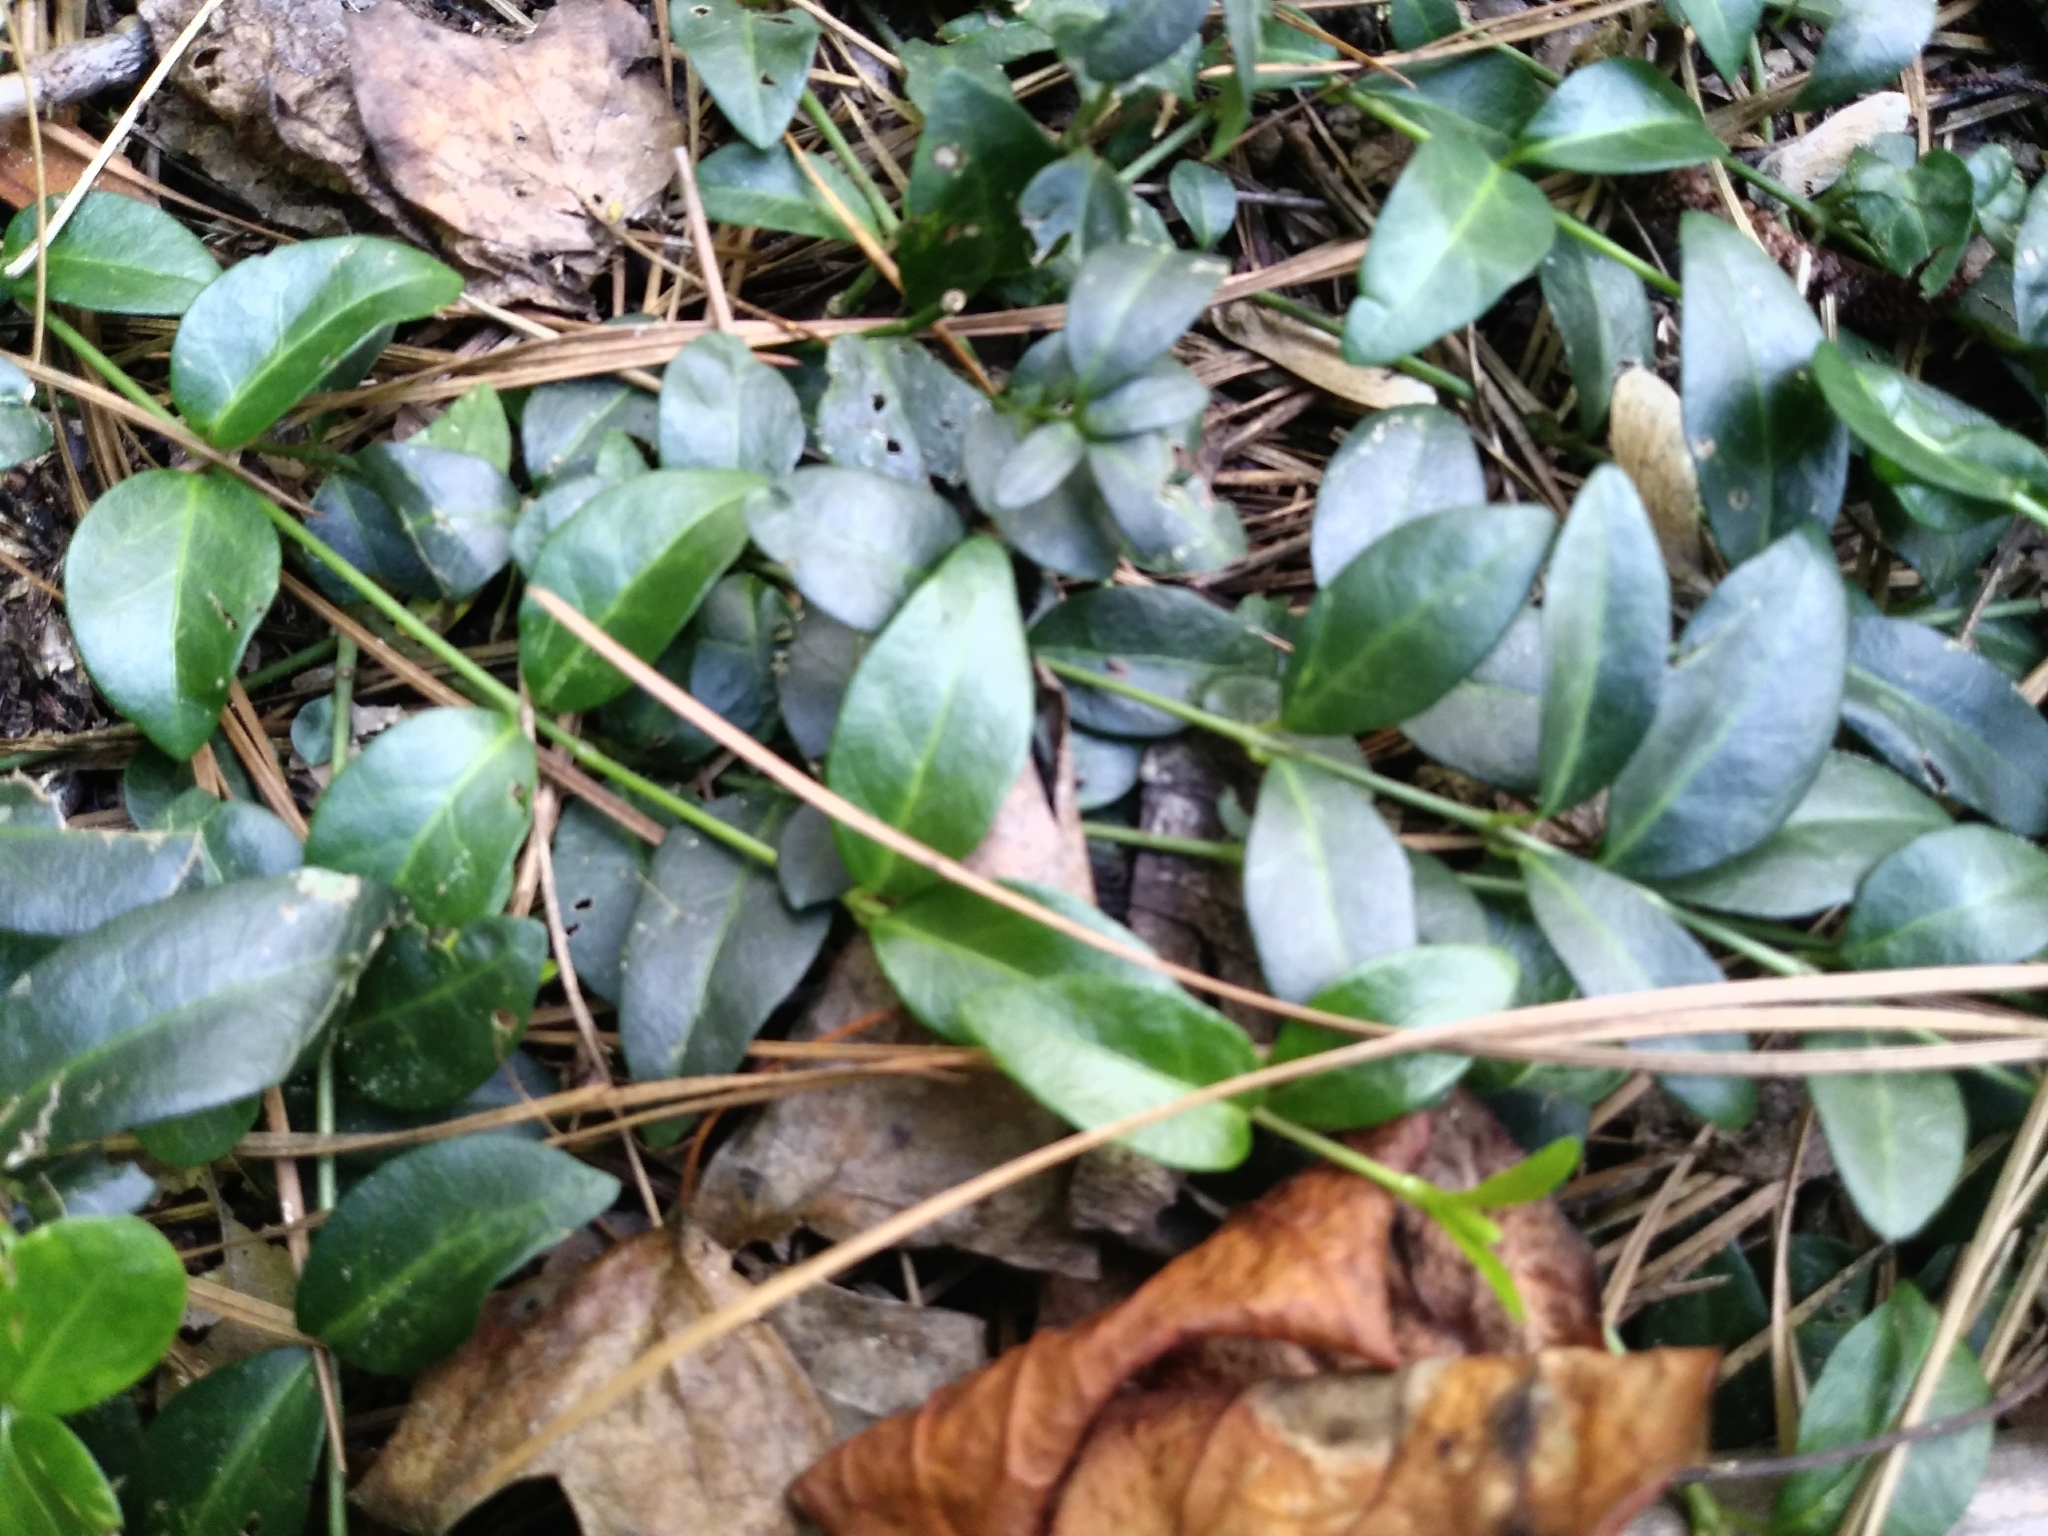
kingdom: Plantae
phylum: Tracheophyta
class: Magnoliopsida
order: Gentianales
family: Apocynaceae
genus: Vinca
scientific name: Vinca minor
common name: Lesser periwinkle
